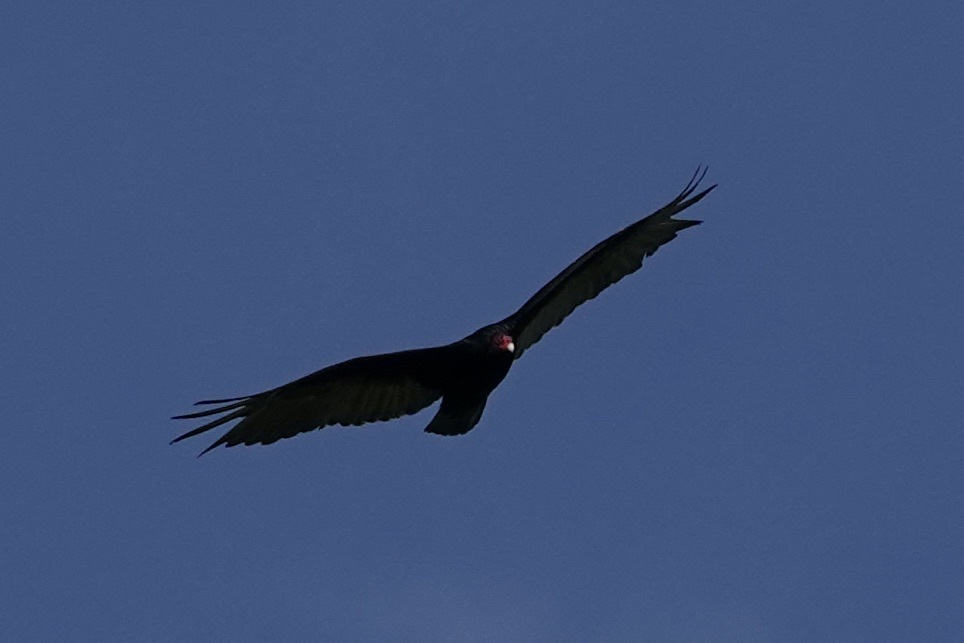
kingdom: Animalia
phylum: Chordata
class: Aves
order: Accipitriformes
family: Cathartidae
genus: Cathartes
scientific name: Cathartes aura
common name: Turkey vulture
